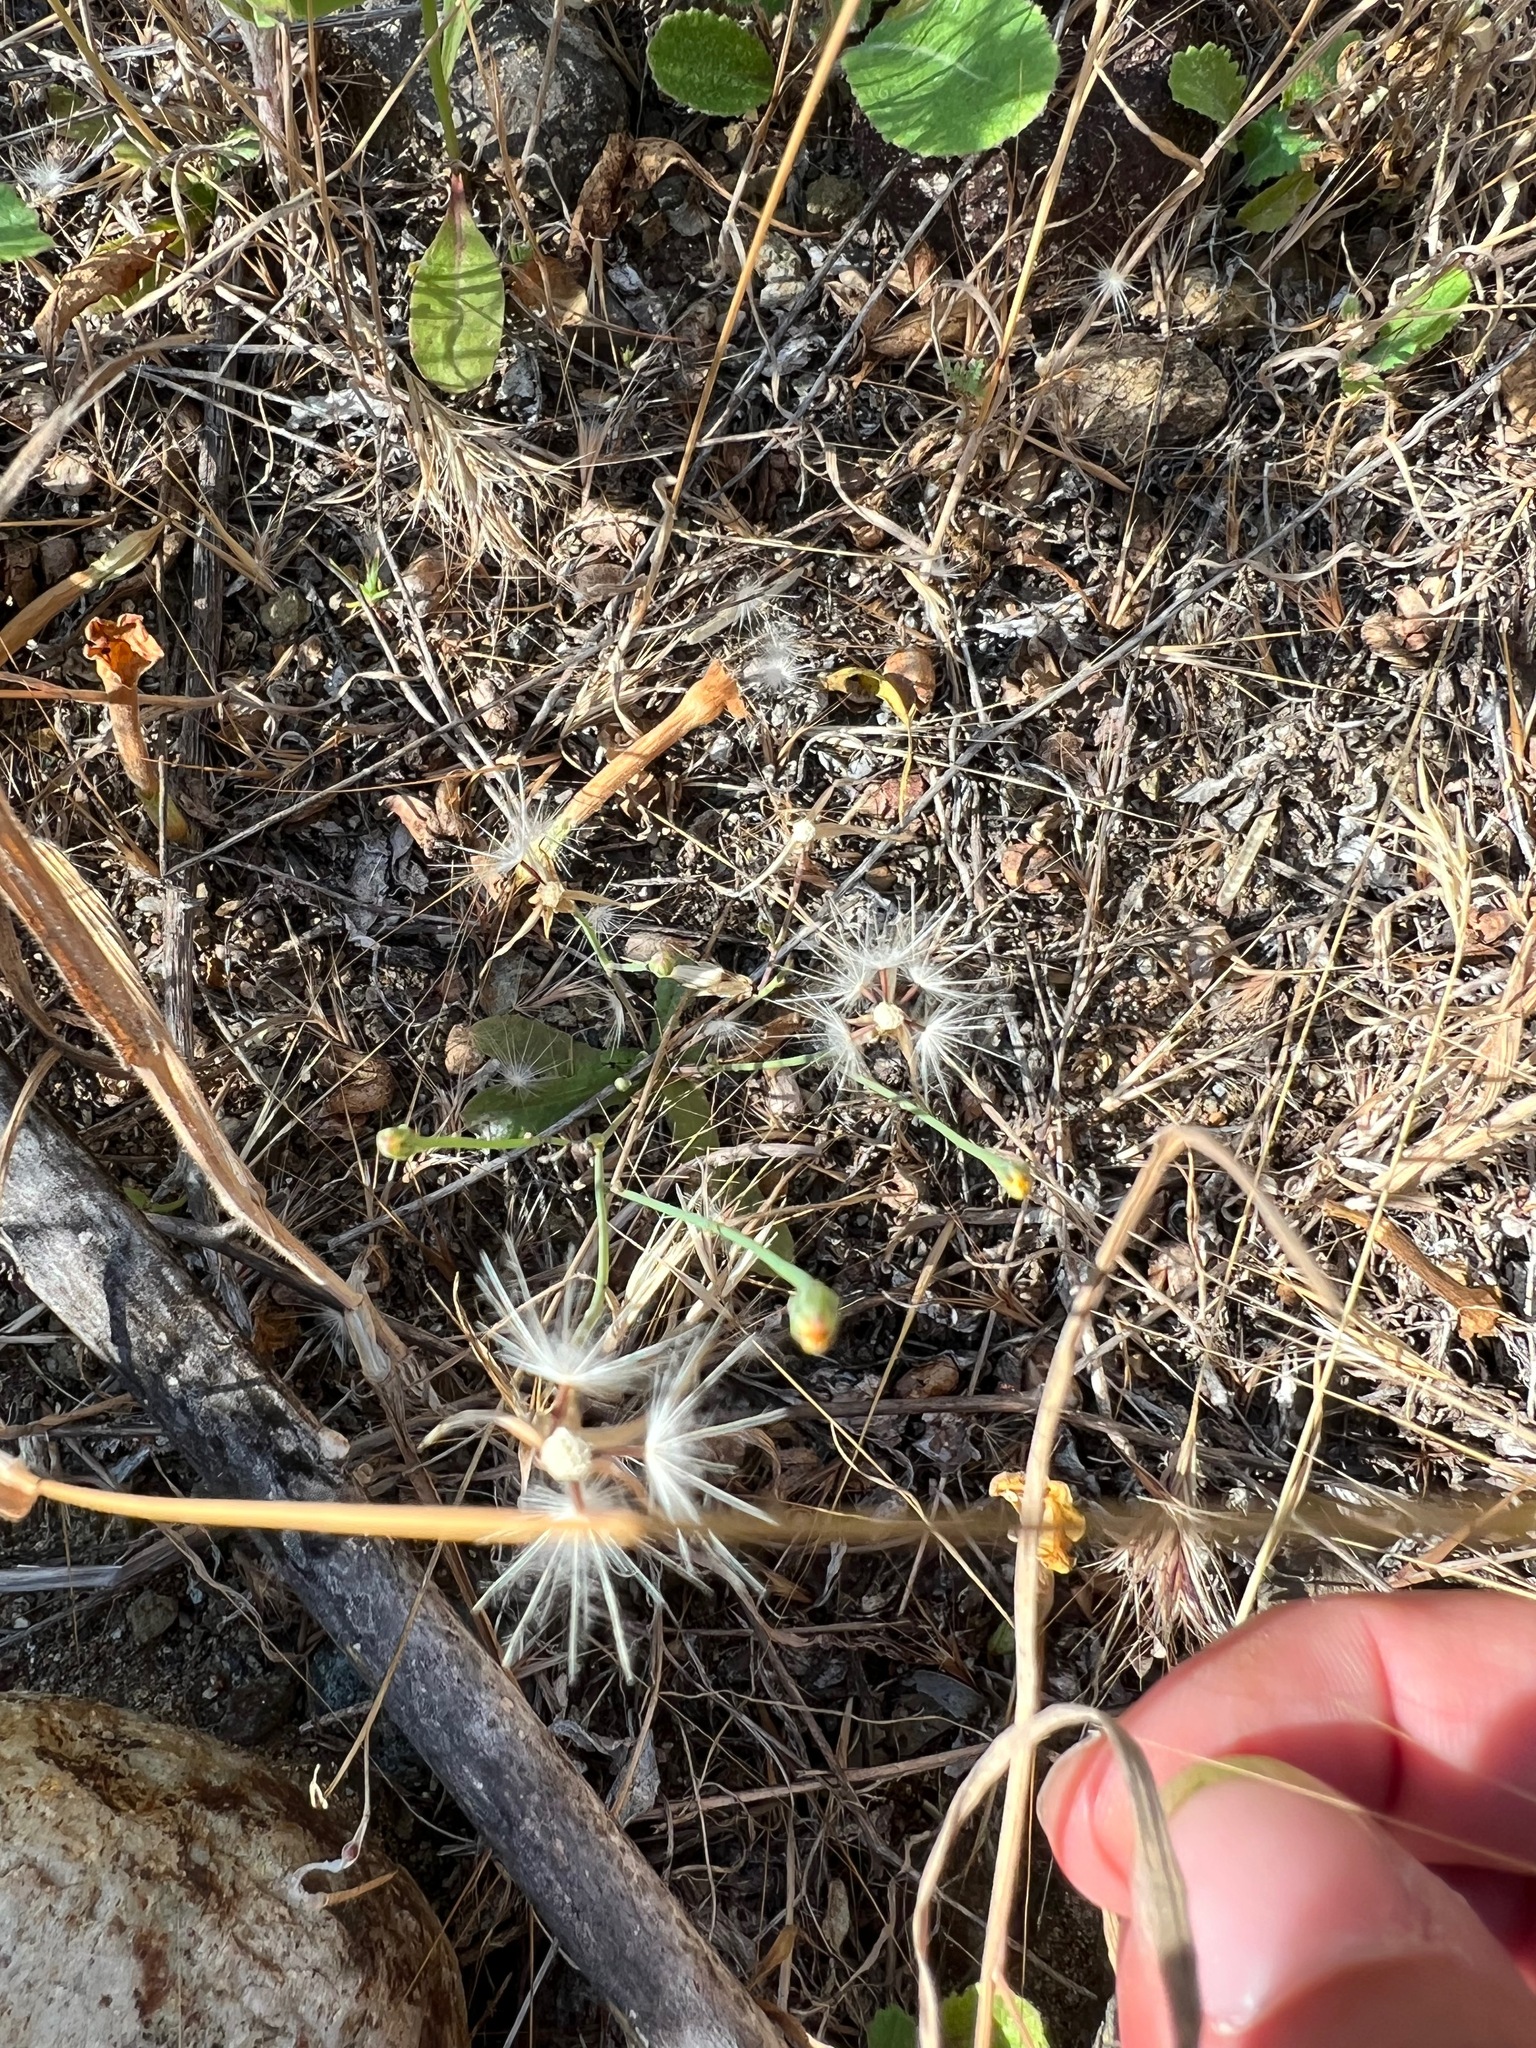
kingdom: Plantae
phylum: Tracheophyta
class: Magnoliopsida
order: Asterales
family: Asteraceae
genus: Hypochaeris
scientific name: Hypochaeris glabra
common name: Smooth catsear
